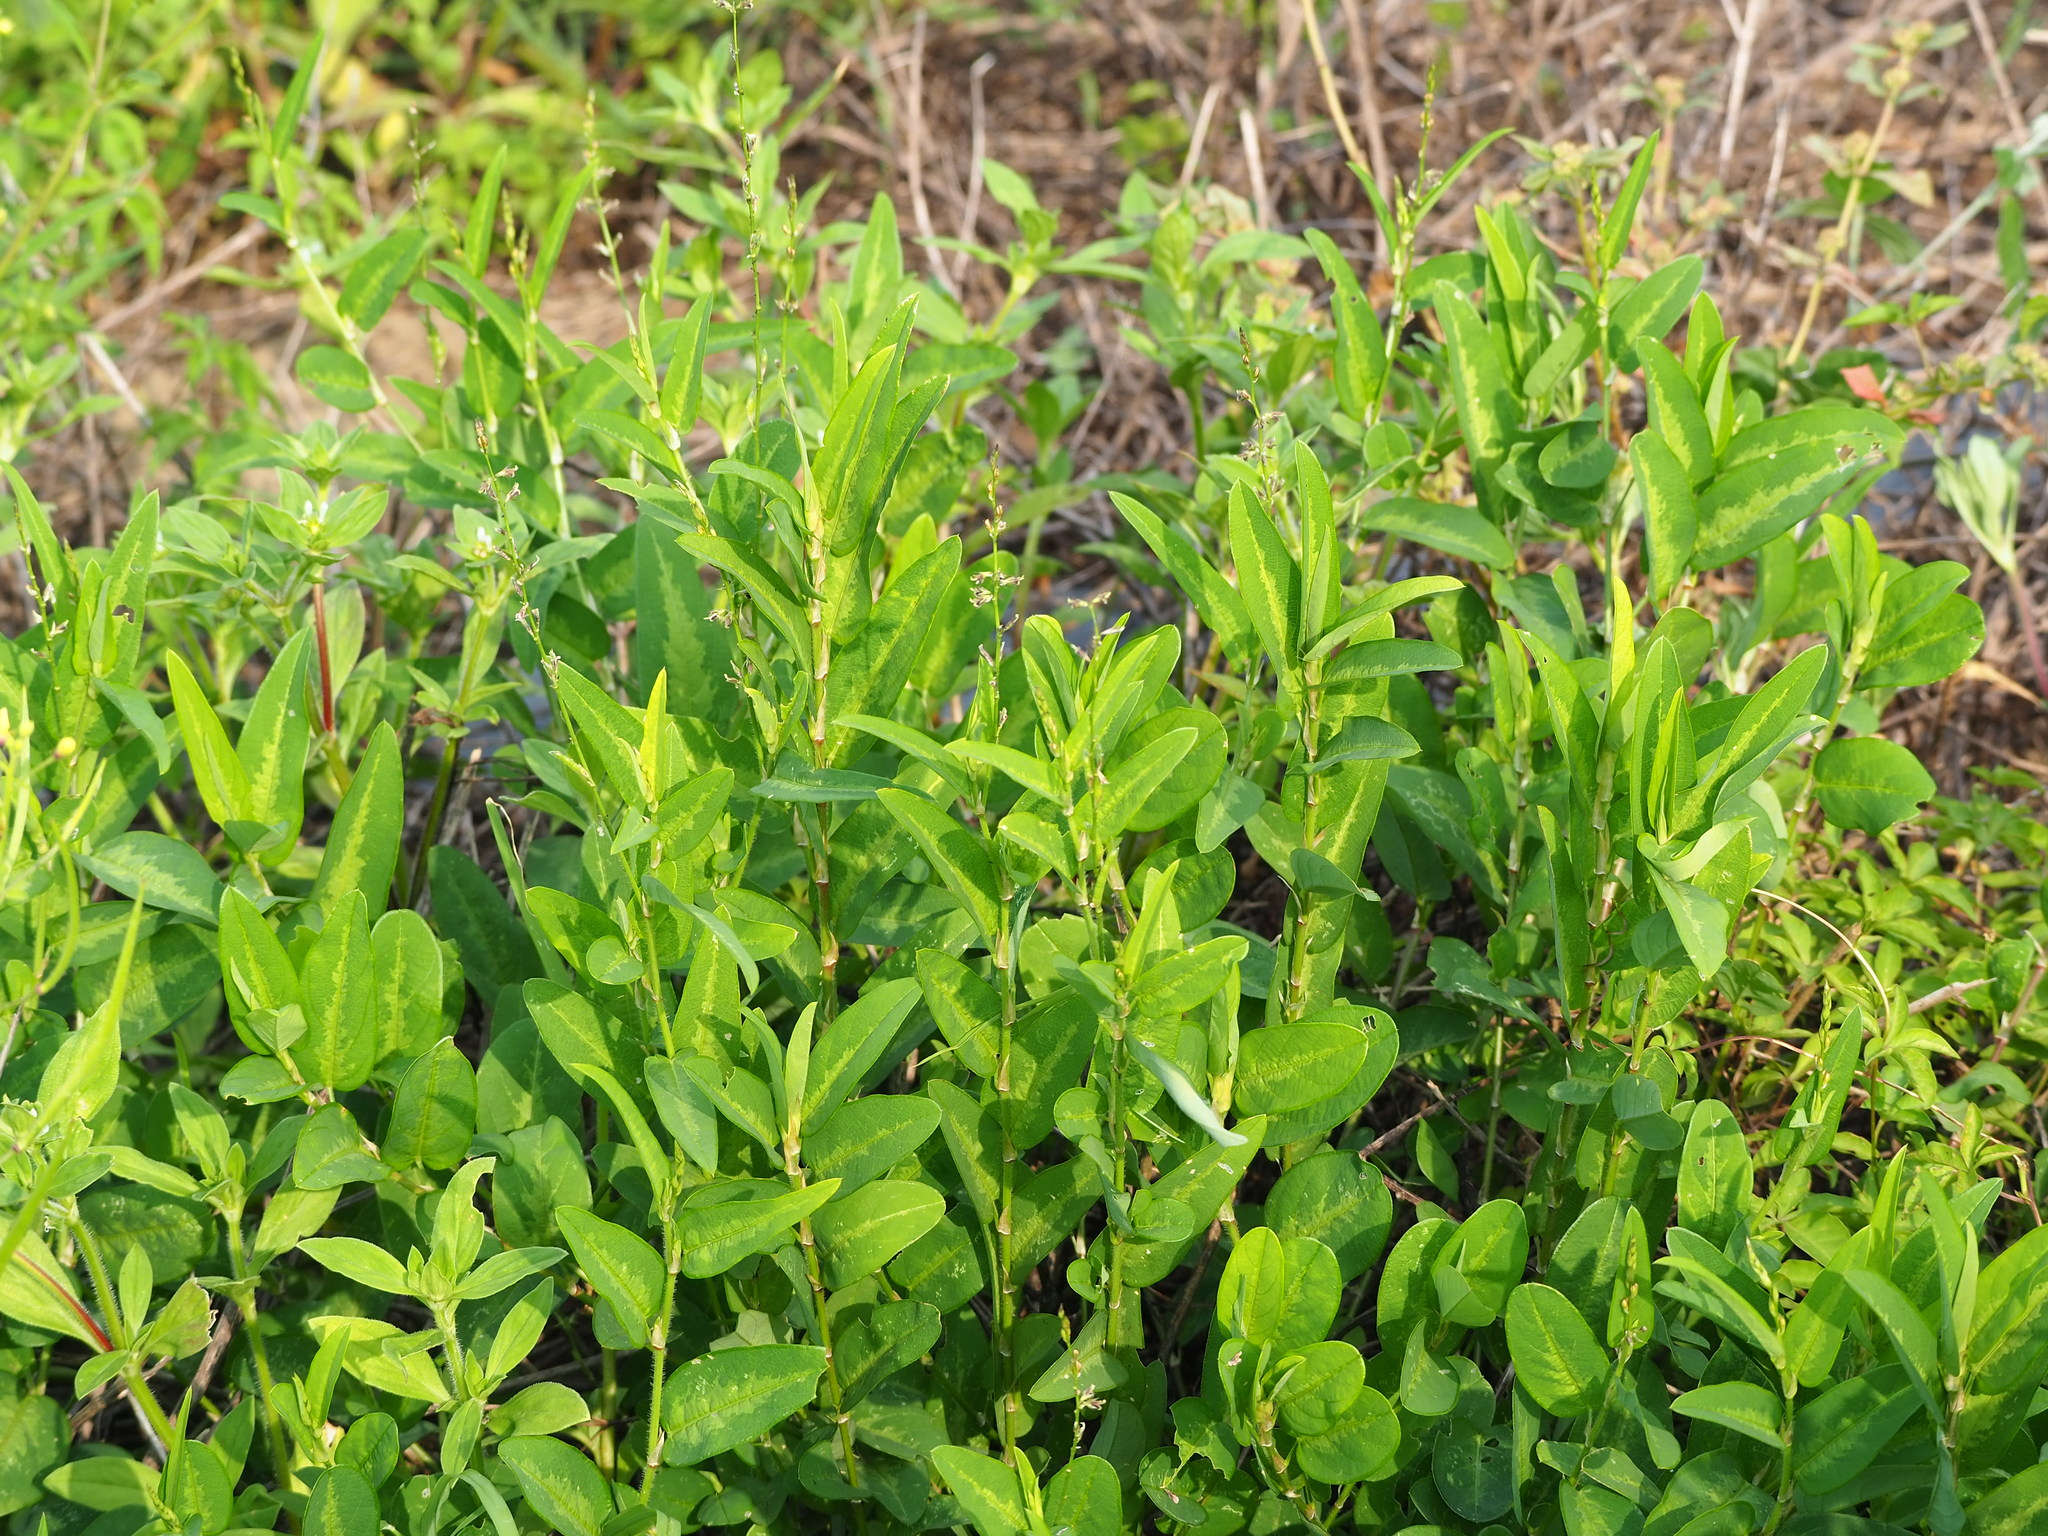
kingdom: Plantae
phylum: Tracheophyta
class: Magnoliopsida
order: Fabales
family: Fabaceae
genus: Alysicarpus
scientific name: Alysicarpus ovalifolius
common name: Alyce clover
